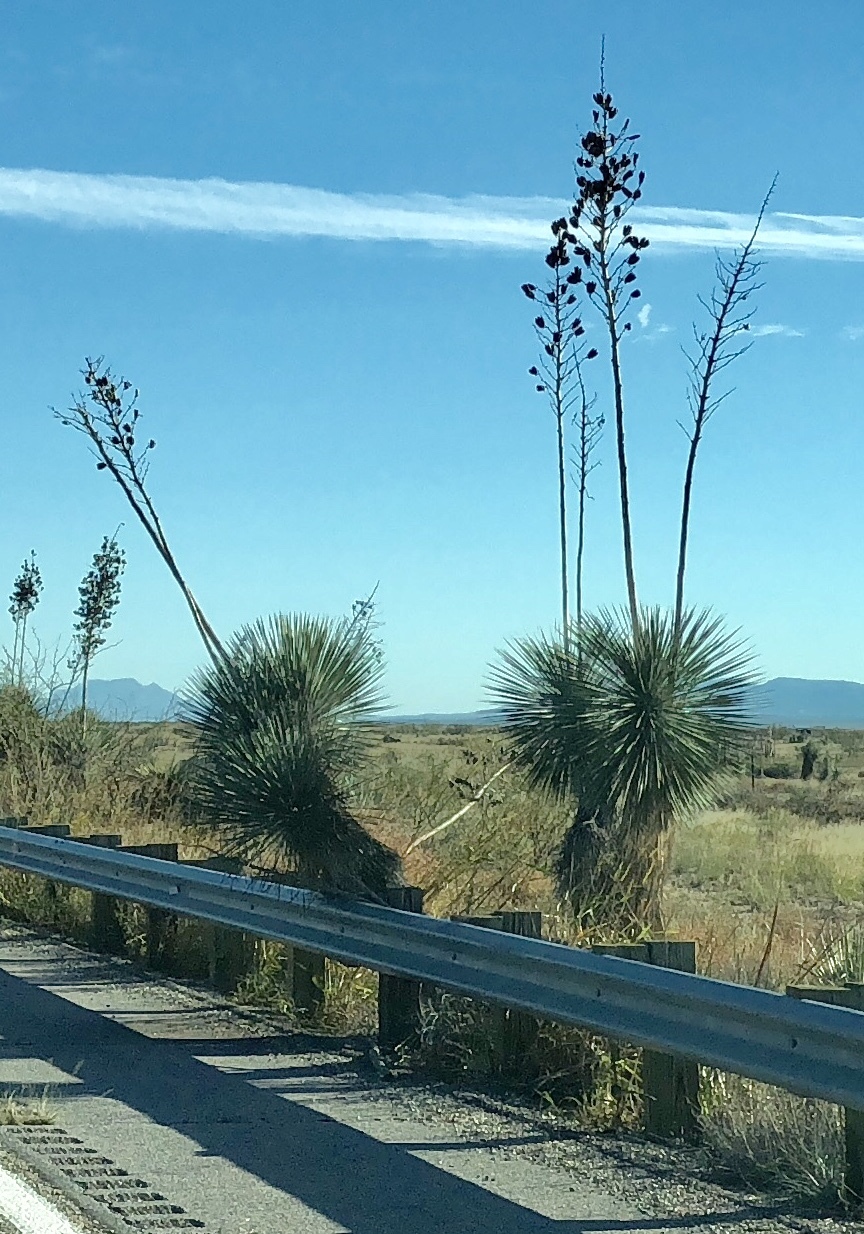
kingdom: Plantae
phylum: Tracheophyta
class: Liliopsida
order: Asparagales
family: Asparagaceae
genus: Yucca
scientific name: Yucca elata
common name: Palmella
